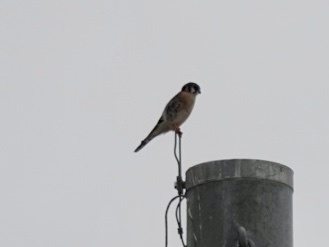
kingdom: Animalia
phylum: Chordata
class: Aves
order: Falconiformes
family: Falconidae
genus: Falco
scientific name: Falco sparverius
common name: American kestrel
